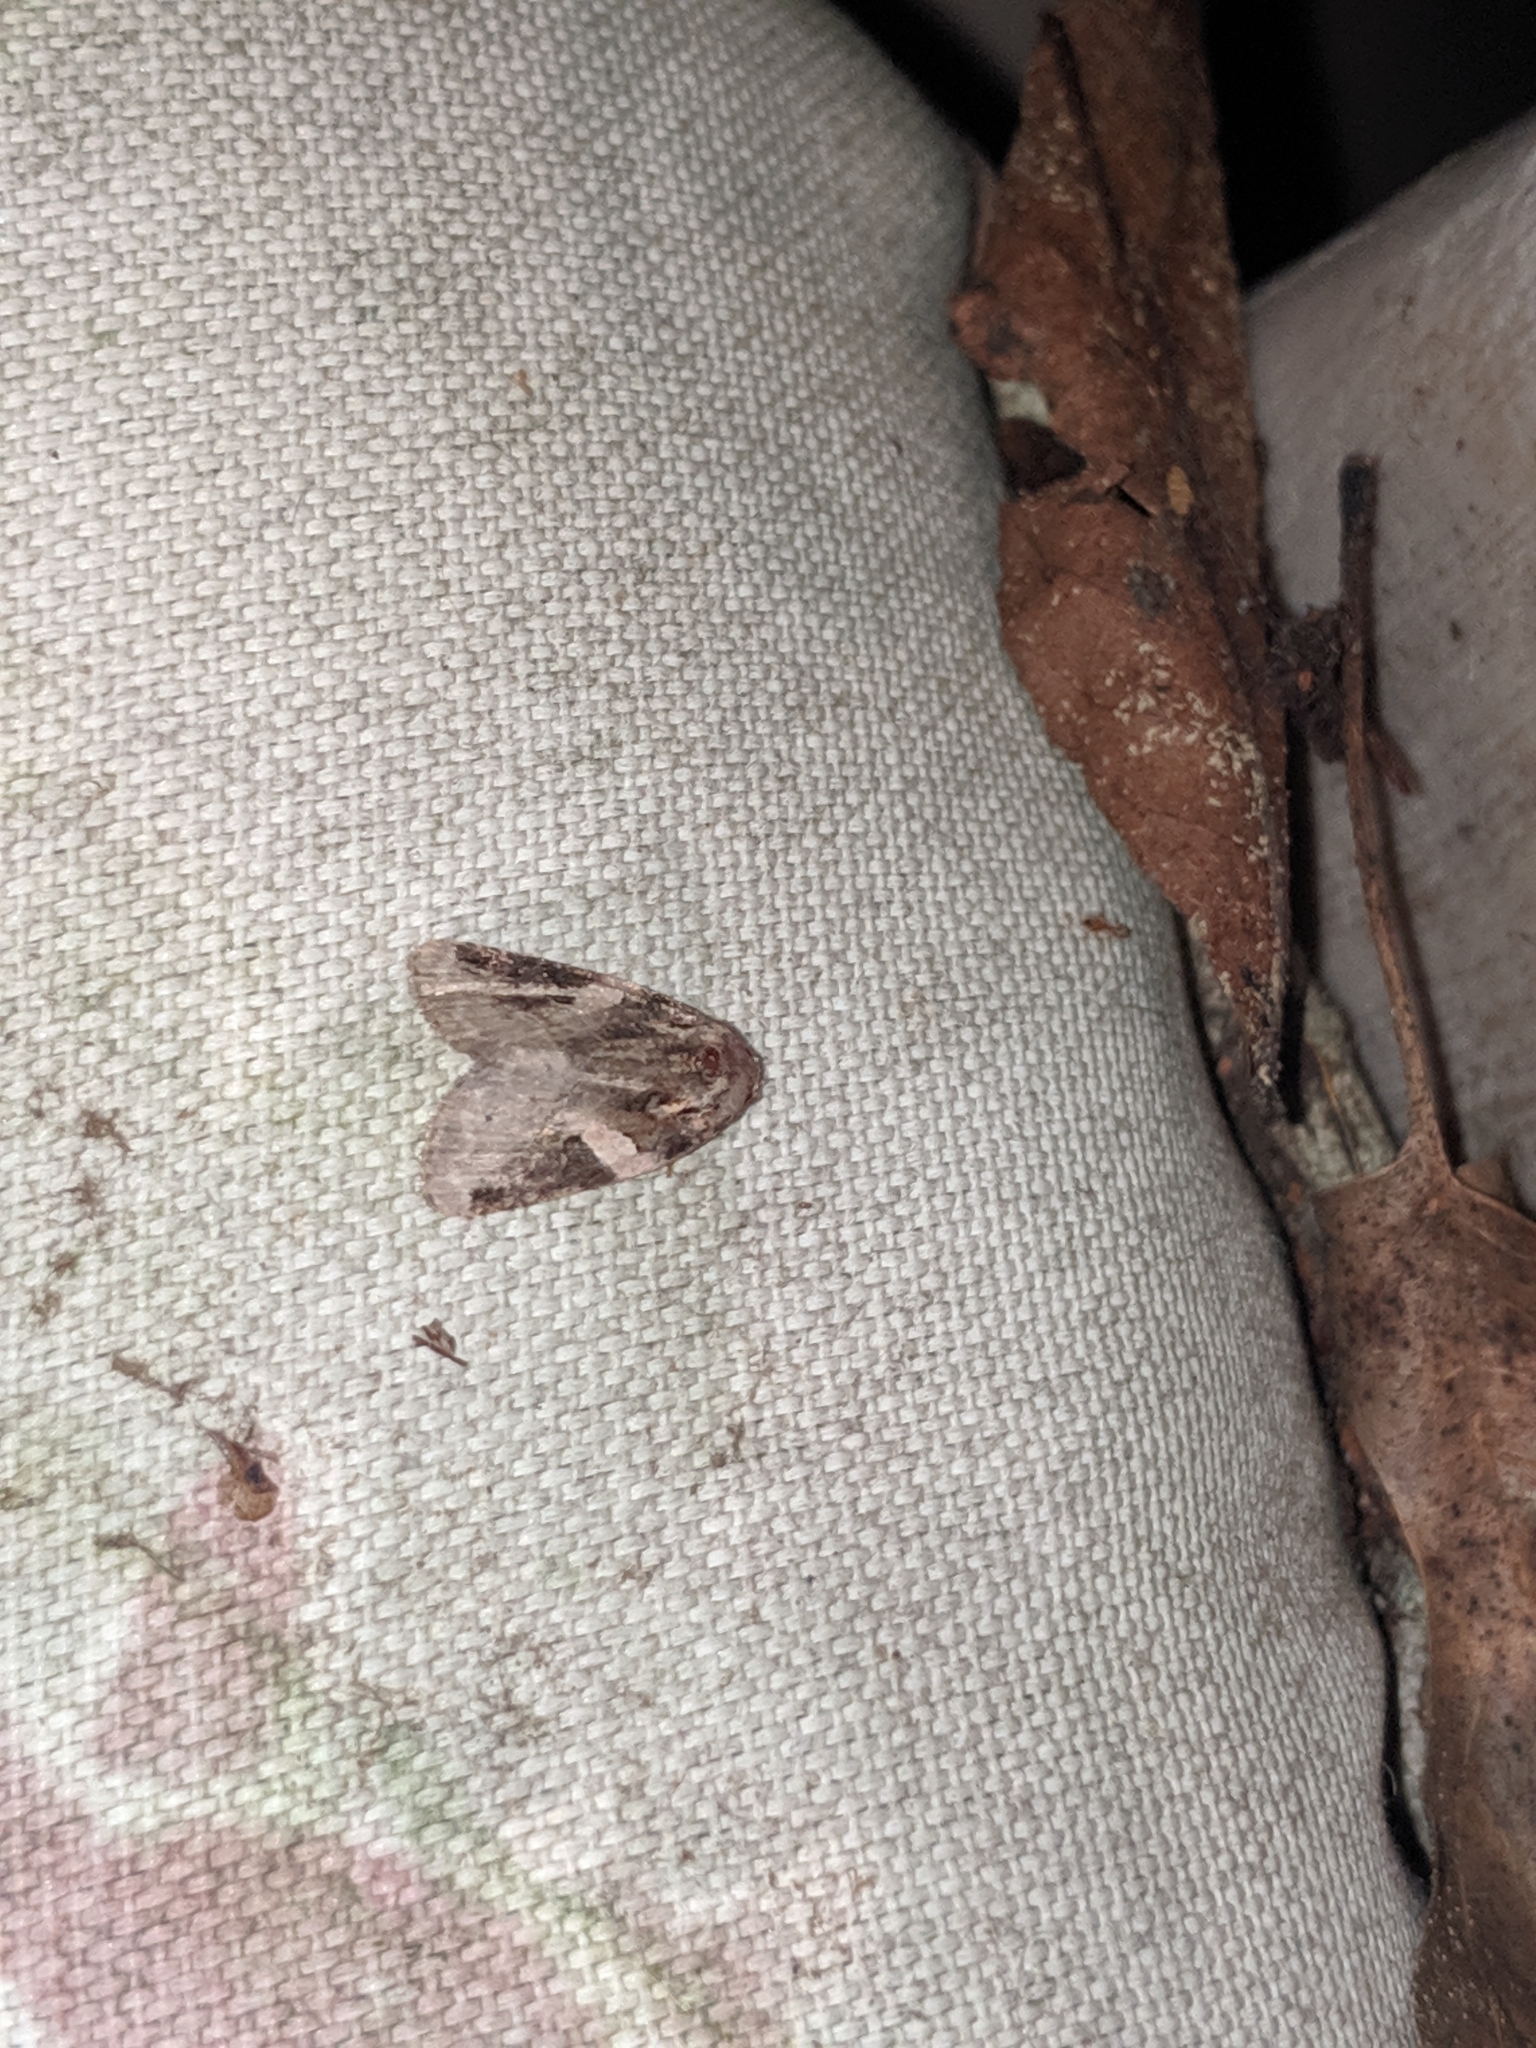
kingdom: Animalia
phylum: Arthropoda
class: Insecta
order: Lepidoptera
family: Noctuidae
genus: Pseudeustrotia
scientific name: Pseudeustrotia carneola
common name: Pink-barred lithacodia moth
